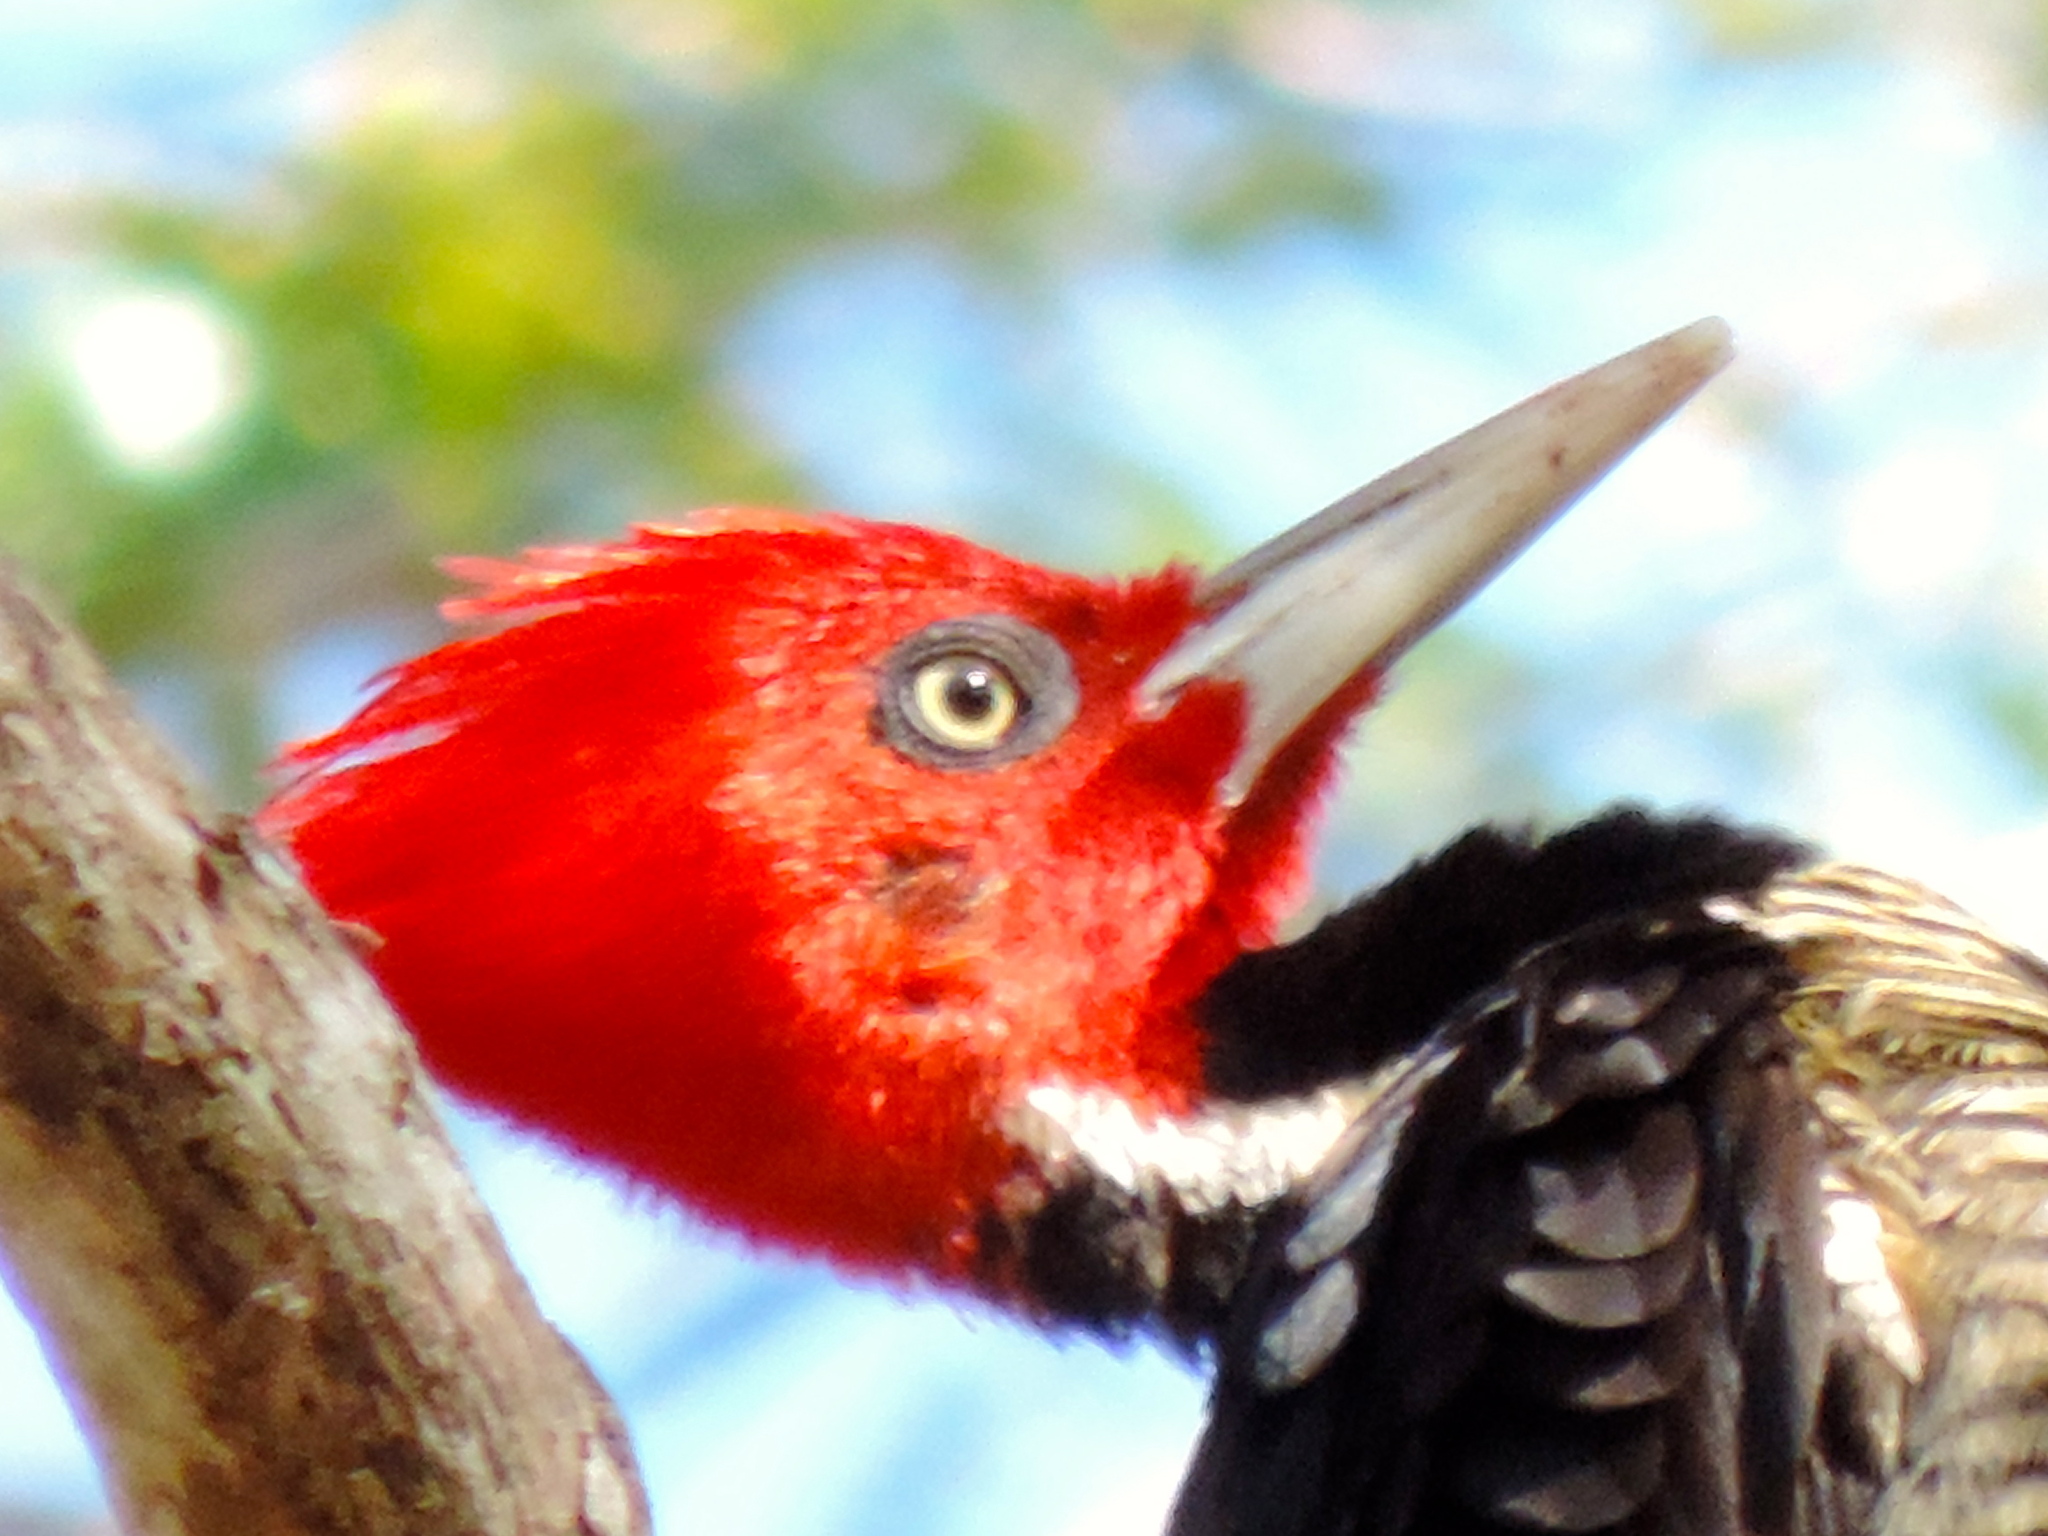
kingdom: Animalia
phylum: Chordata
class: Aves
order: Piciformes
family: Picidae
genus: Campephilus
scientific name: Campephilus guatemalensis
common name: Pale-billed woodpecker
